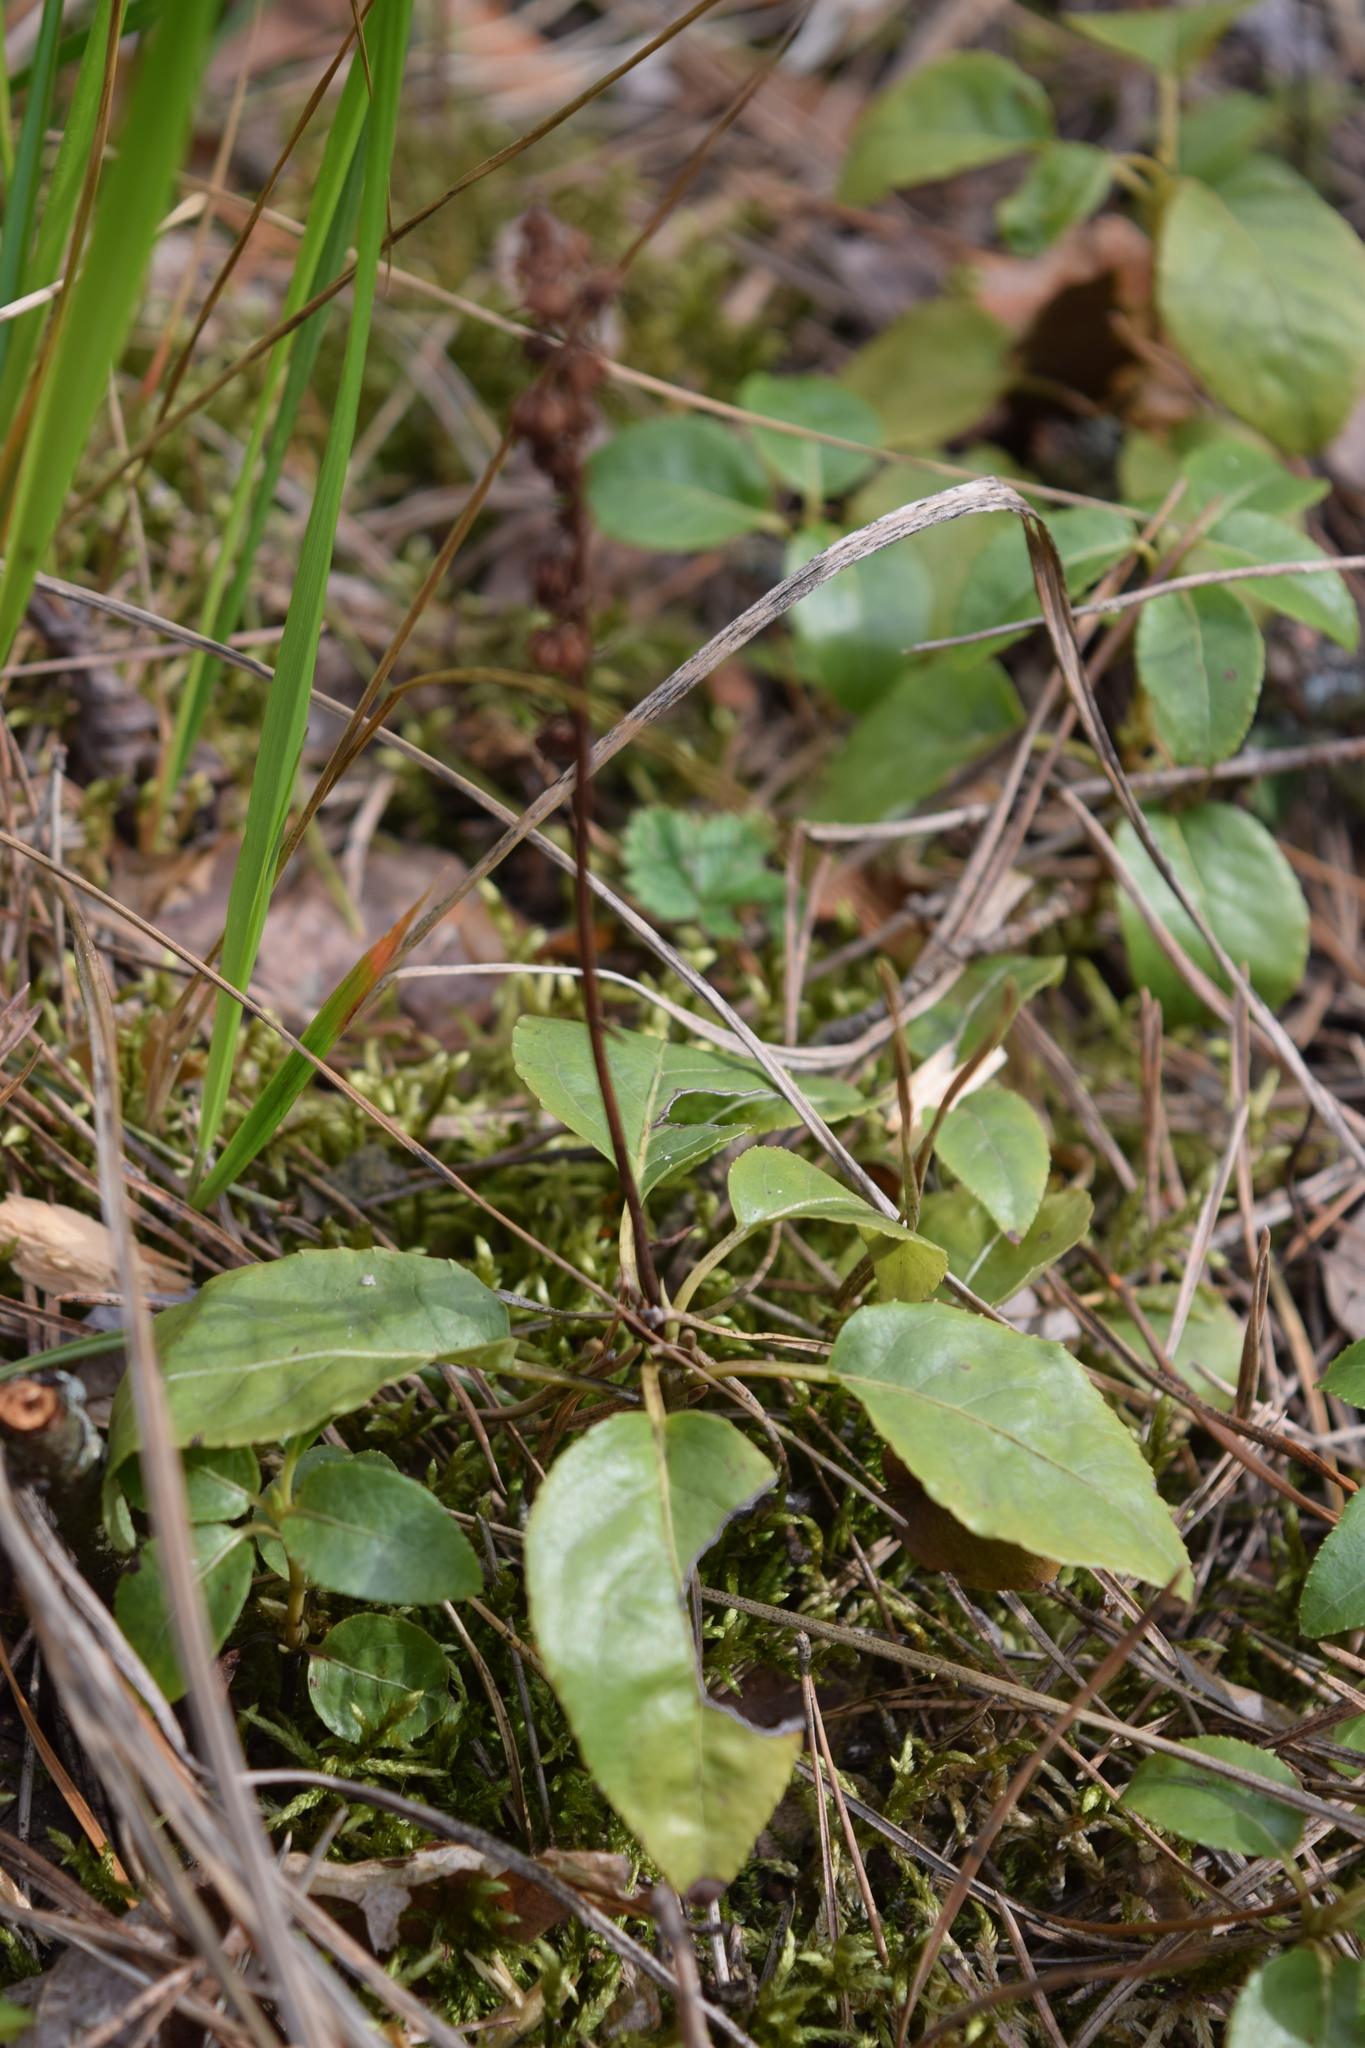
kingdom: Plantae
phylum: Tracheophyta
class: Magnoliopsida
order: Ericales
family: Ericaceae
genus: Orthilia
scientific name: Orthilia secunda
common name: One-sided orthilia
